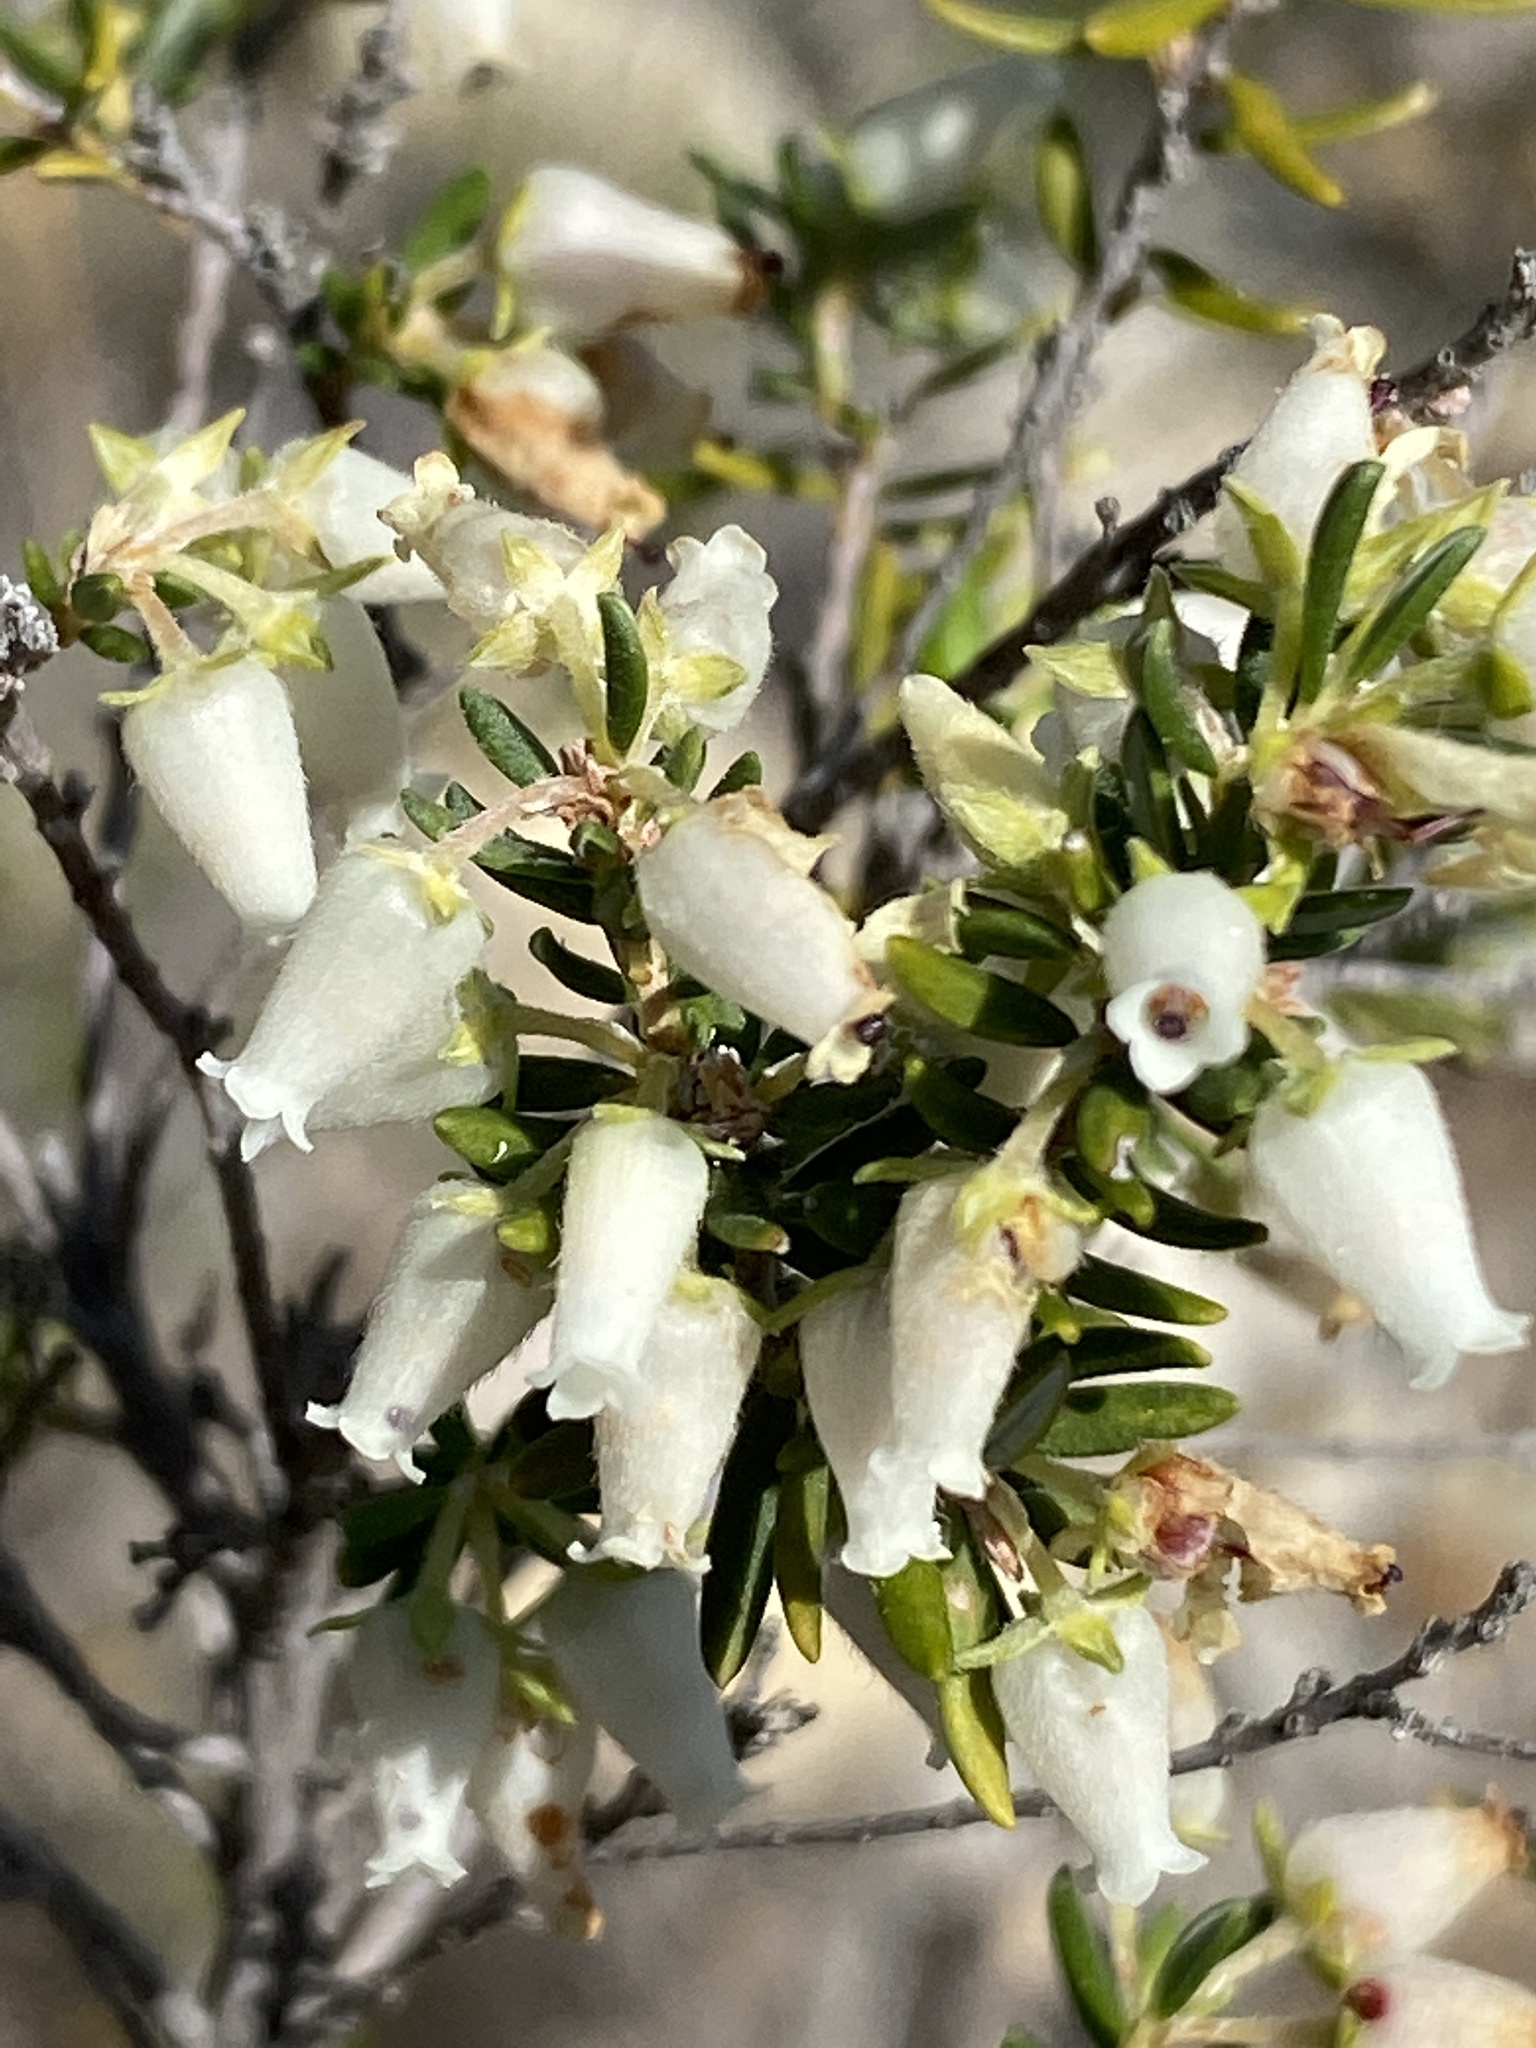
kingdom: Plantae
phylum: Tracheophyta
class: Magnoliopsida
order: Ericales
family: Ericaceae
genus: Erica
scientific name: Erica caffra
